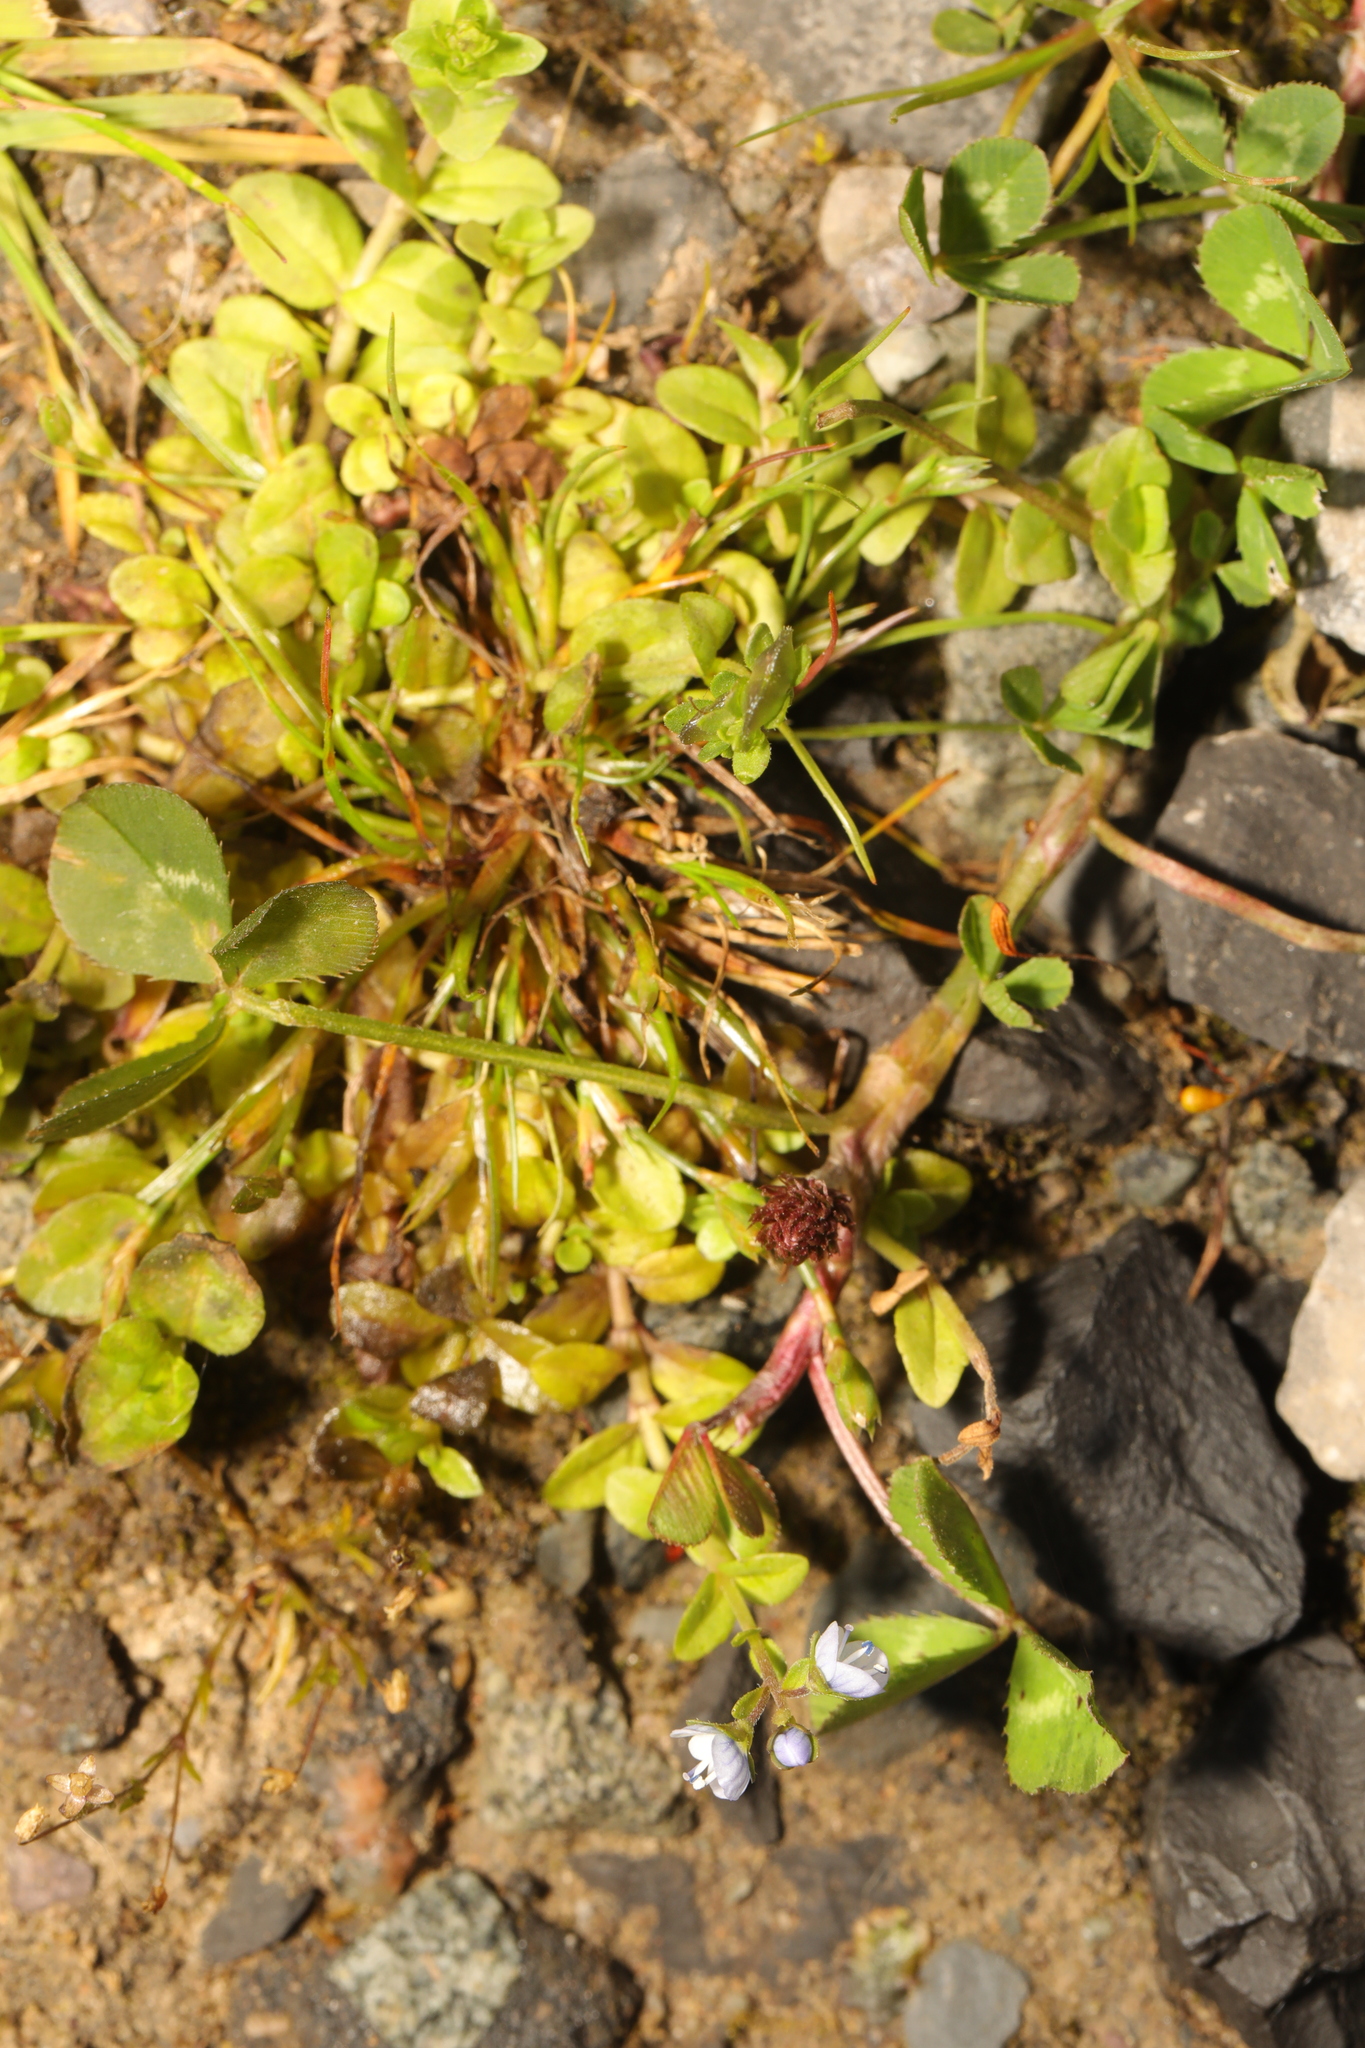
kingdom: Plantae
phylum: Tracheophyta
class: Magnoliopsida
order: Lamiales
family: Plantaginaceae
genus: Veronica
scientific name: Veronica serpyllifolia
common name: Thyme-leaved speedwell
